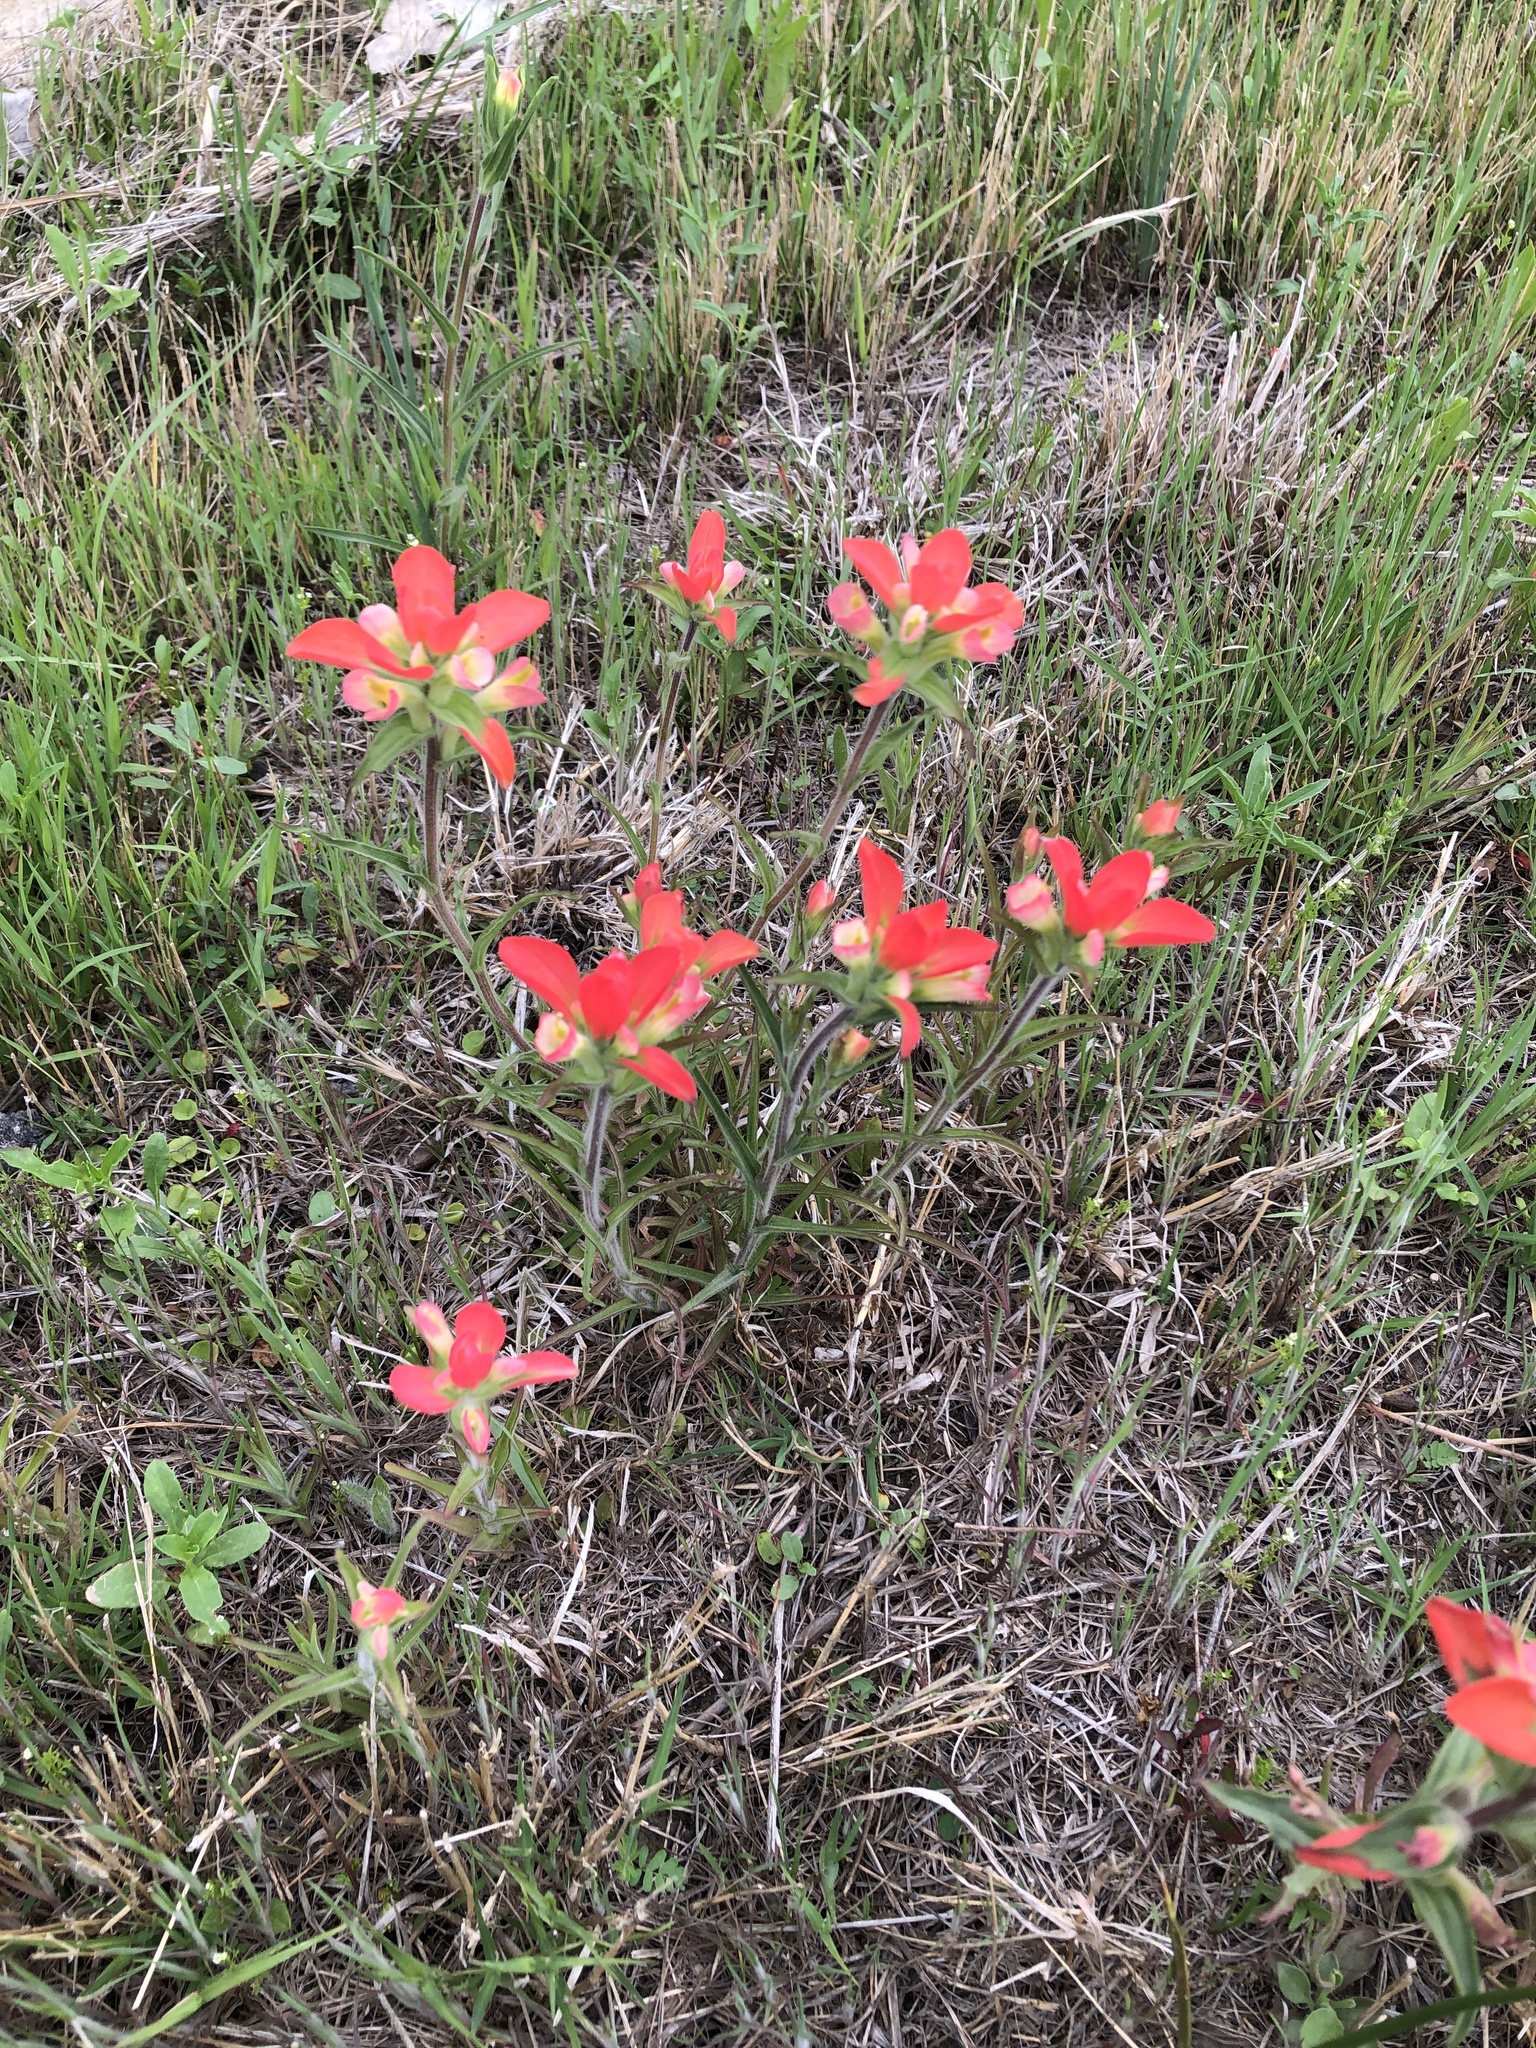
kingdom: Plantae
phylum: Tracheophyta
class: Magnoliopsida
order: Lamiales
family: Orobanchaceae
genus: Castilleja
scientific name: Castilleja indivisa
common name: Texas paintbrush
